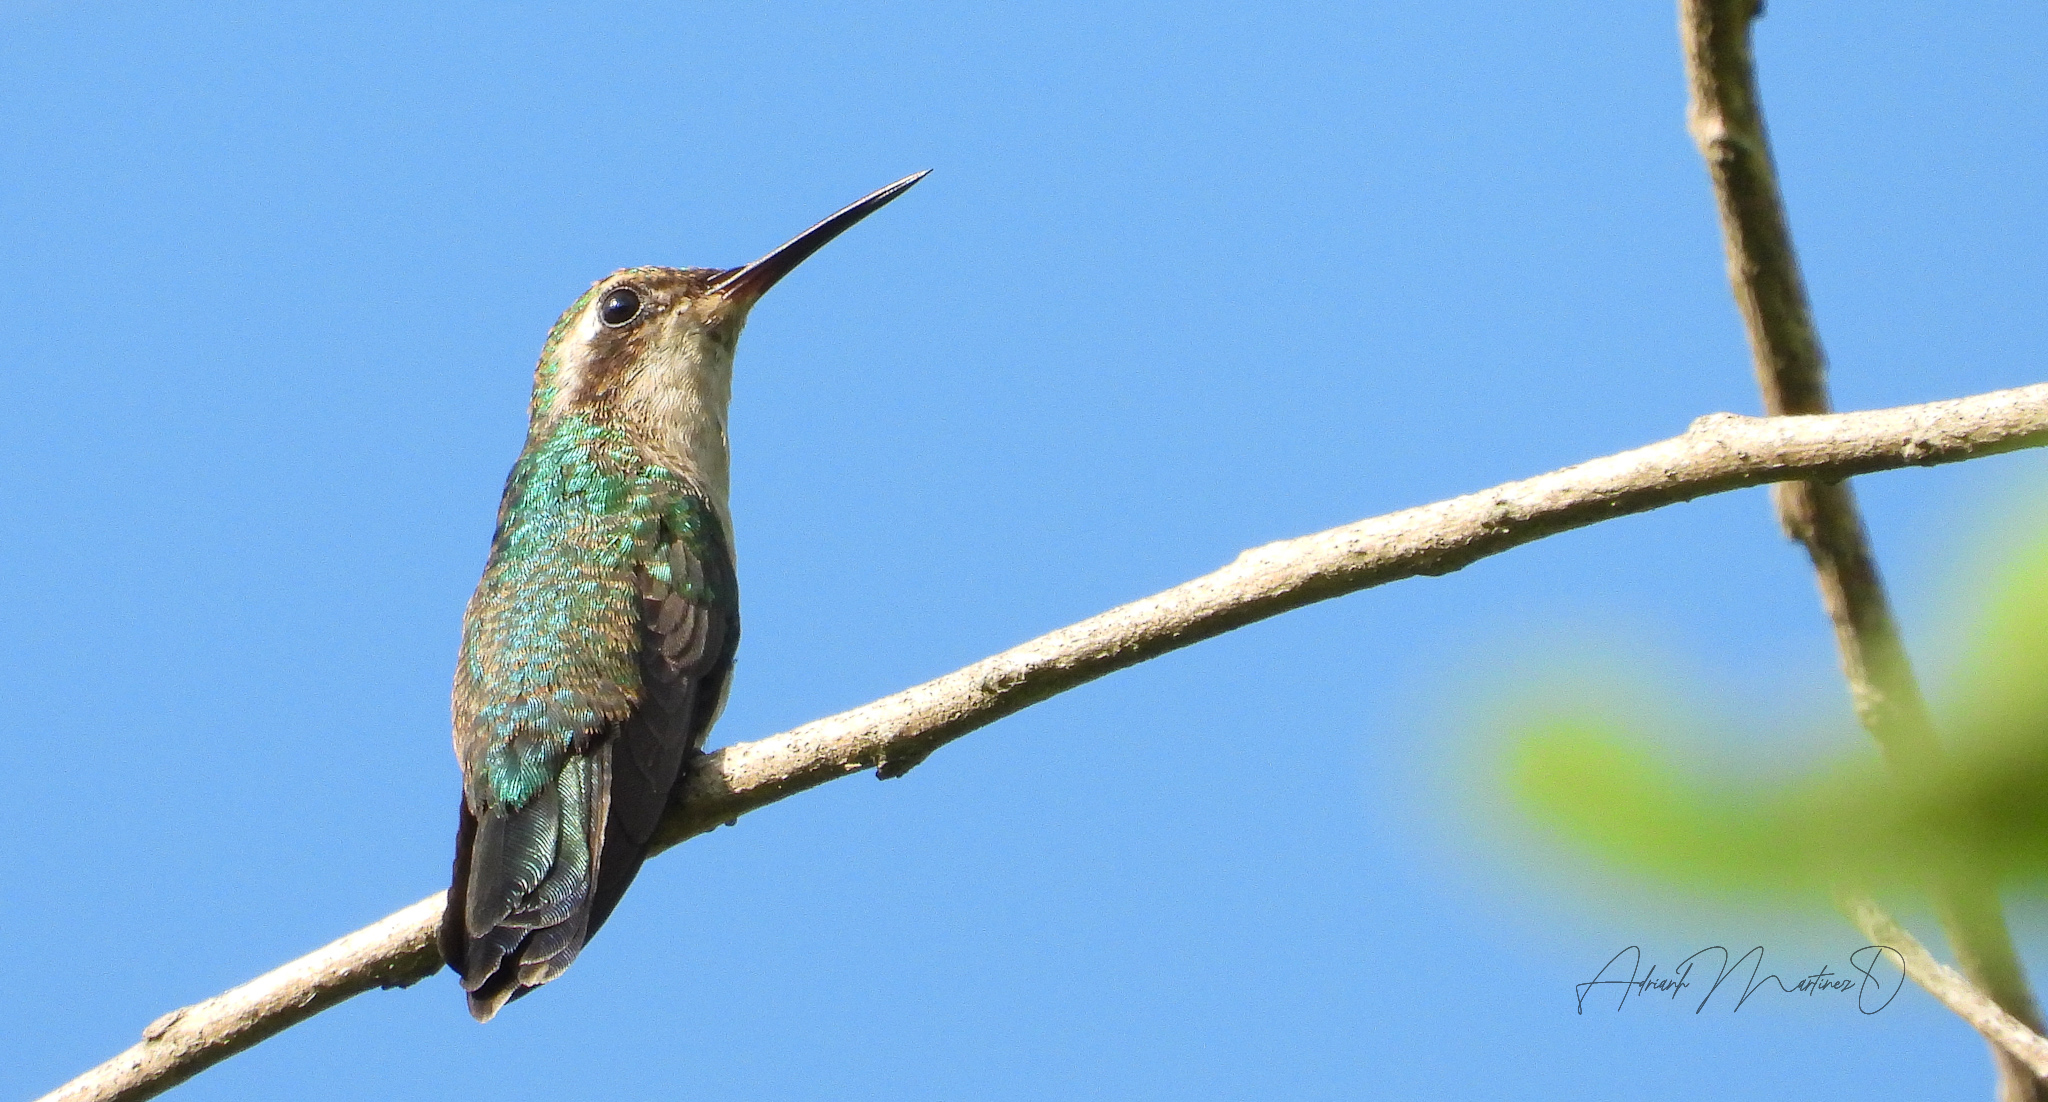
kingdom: Animalia
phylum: Chordata
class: Aves
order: Apodiformes
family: Trochilidae
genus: Cynanthus
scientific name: Cynanthus canivetii
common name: Canivet's emerald
